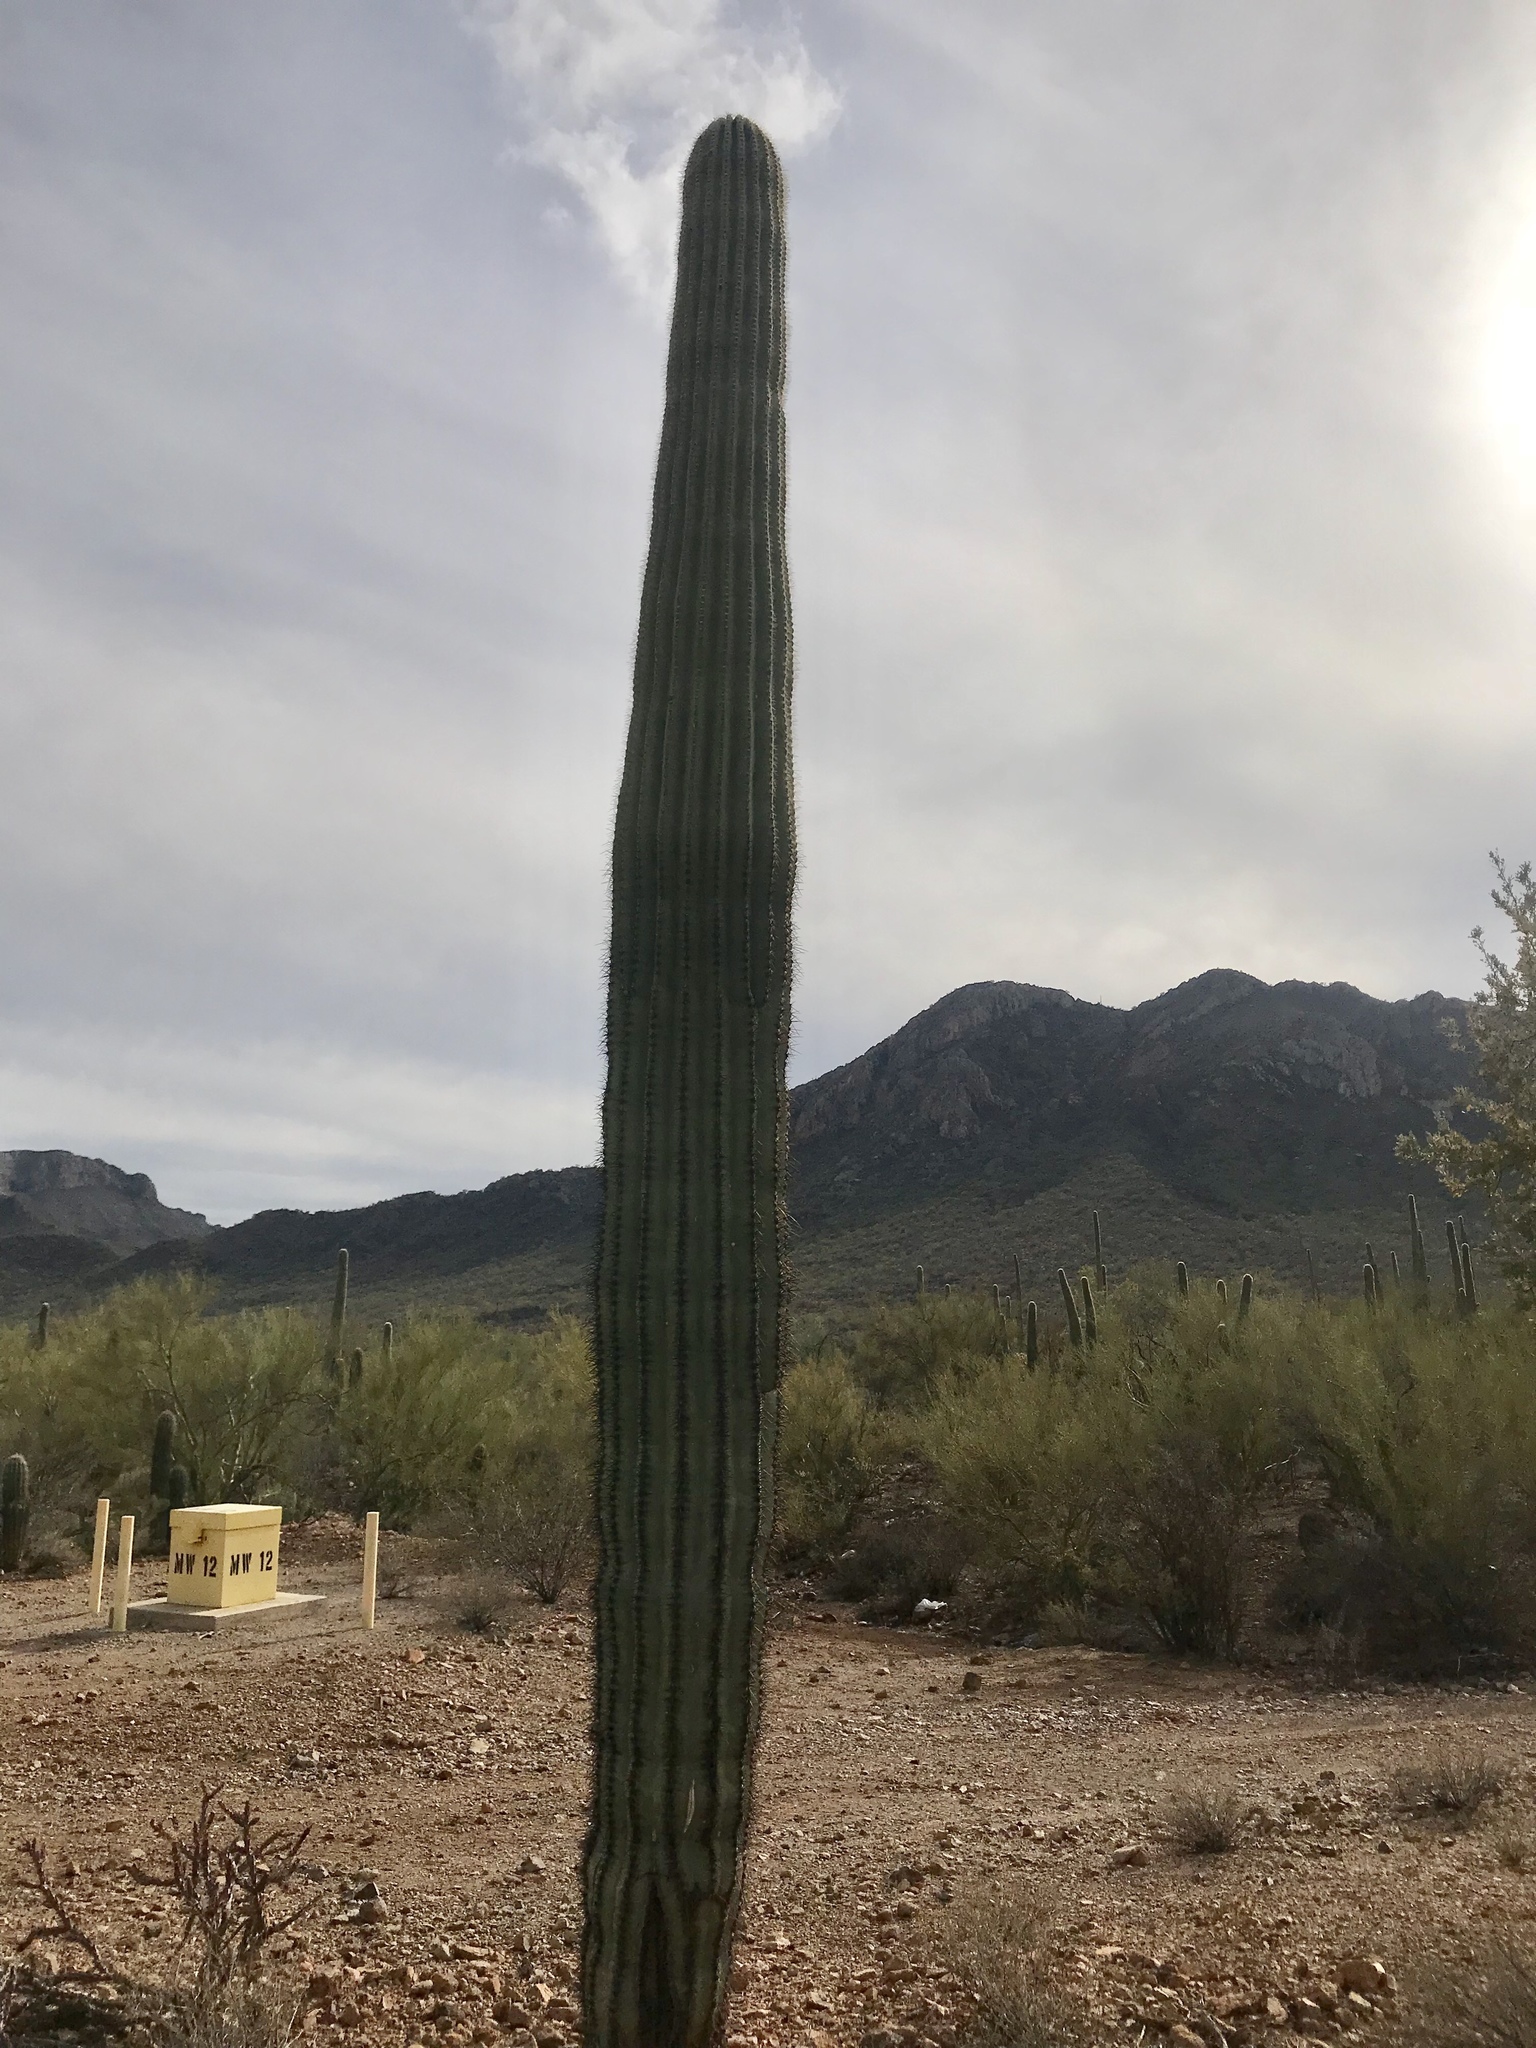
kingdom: Plantae
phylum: Tracheophyta
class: Magnoliopsida
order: Caryophyllales
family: Cactaceae
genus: Carnegiea
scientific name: Carnegiea gigantea
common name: Saguaro
